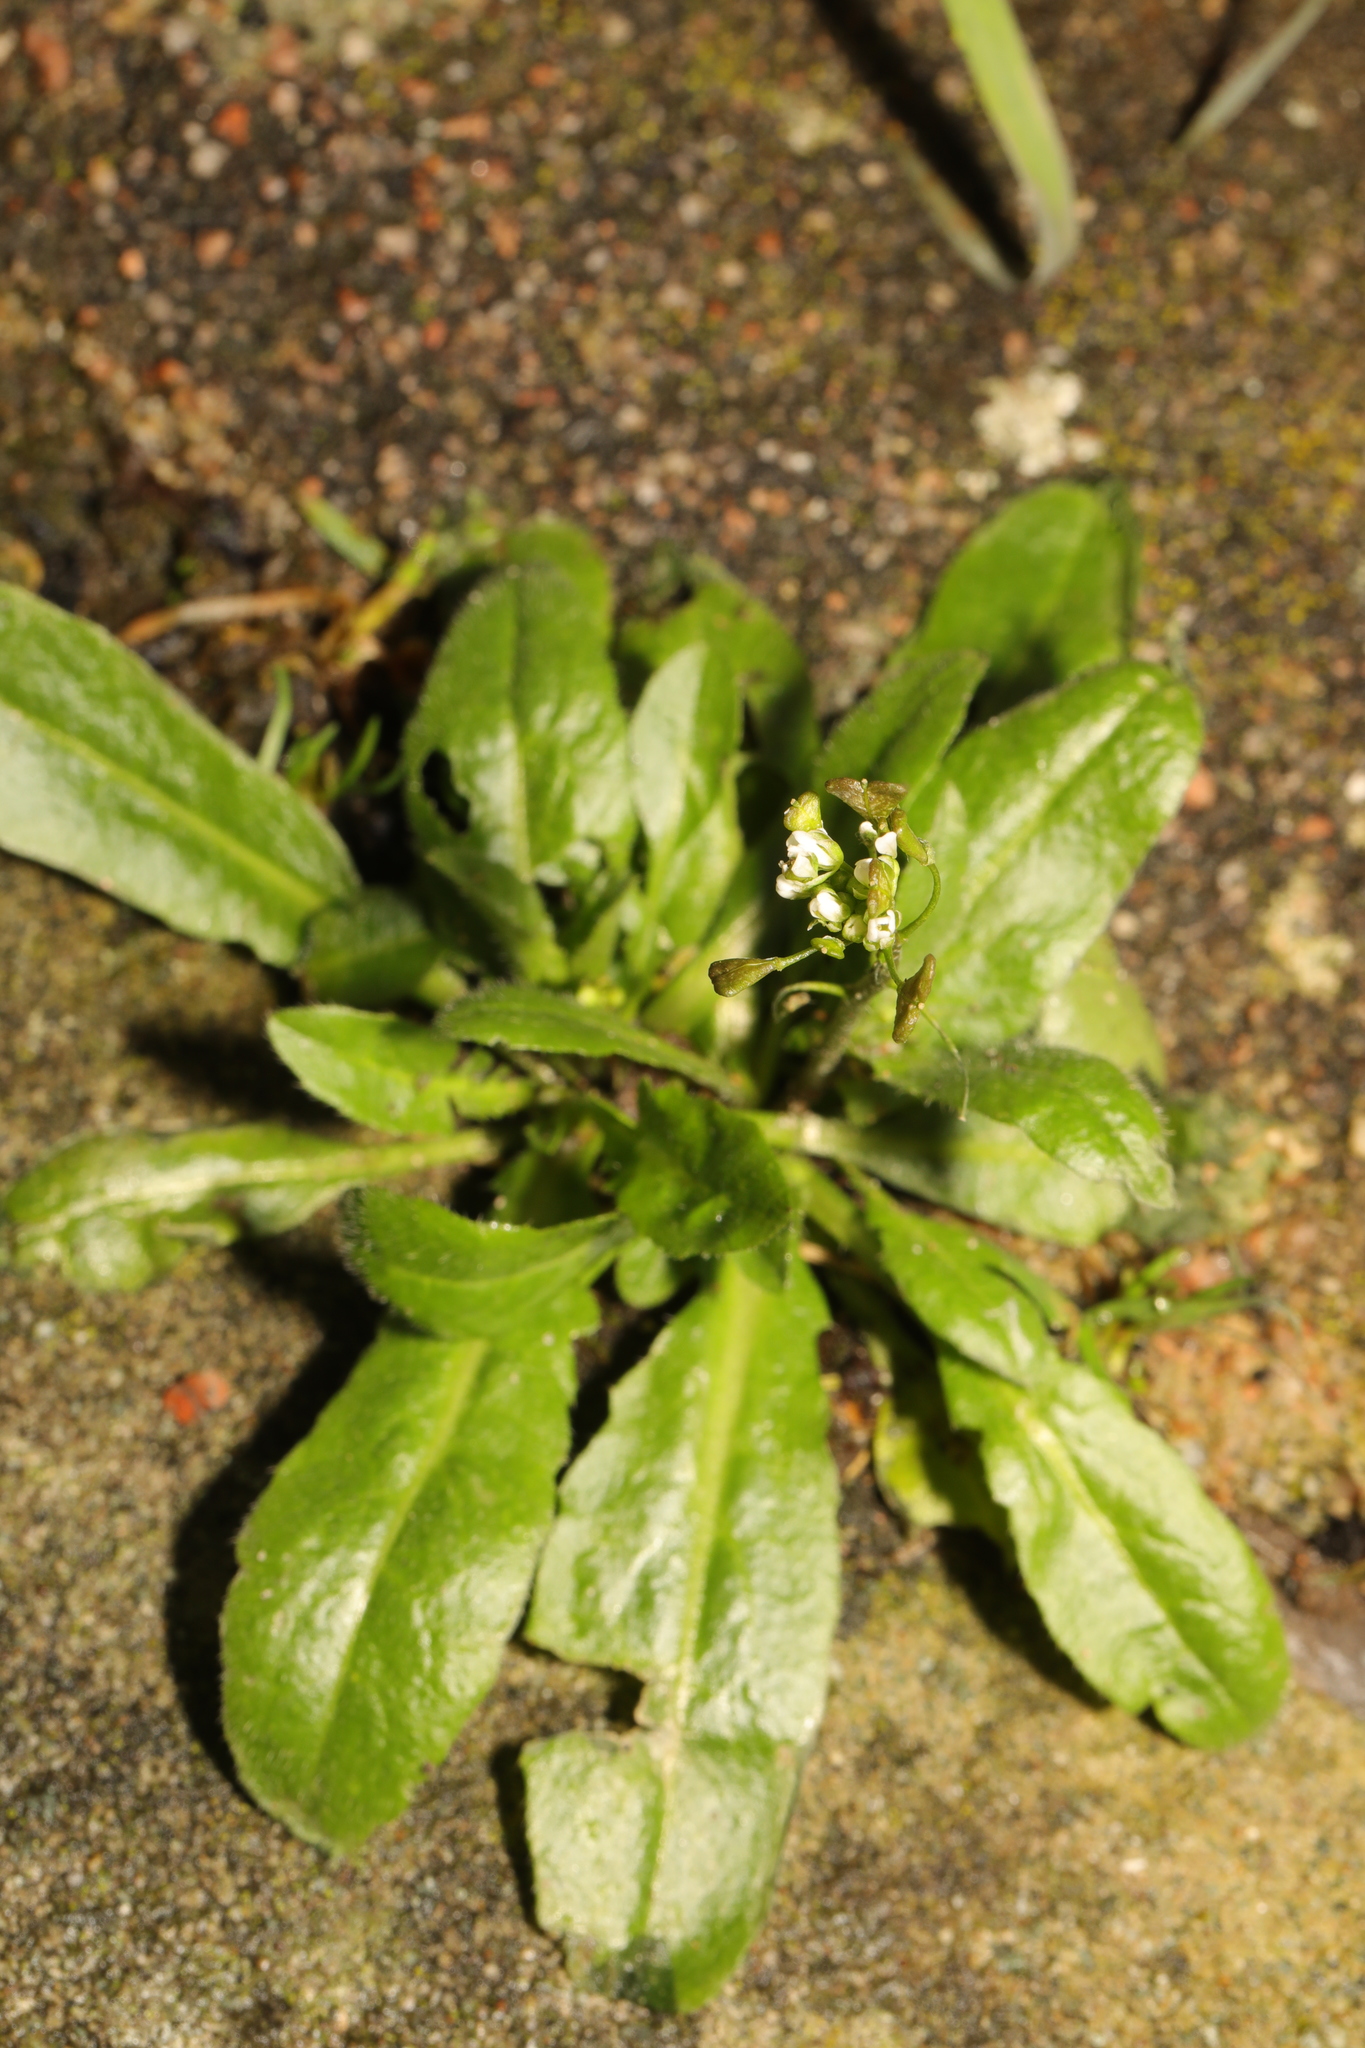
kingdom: Plantae
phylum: Tracheophyta
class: Magnoliopsida
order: Brassicales
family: Brassicaceae
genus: Capsella
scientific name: Capsella bursa-pastoris
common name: Shepherd's purse
